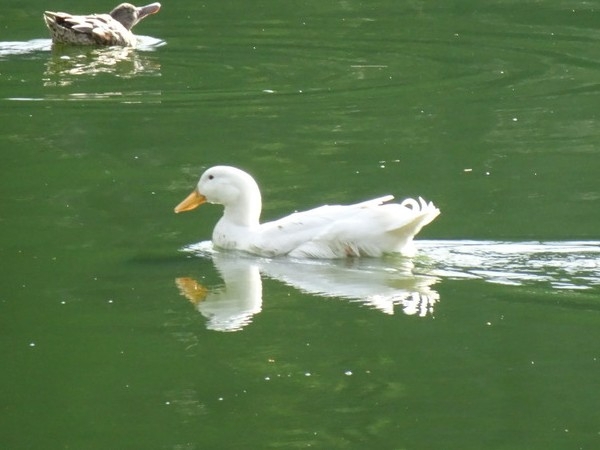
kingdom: Animalia
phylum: Chordata
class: Aves
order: Anseriformes
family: Anatidae
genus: Anas
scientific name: Anas platyrhynchos
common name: Mallard
